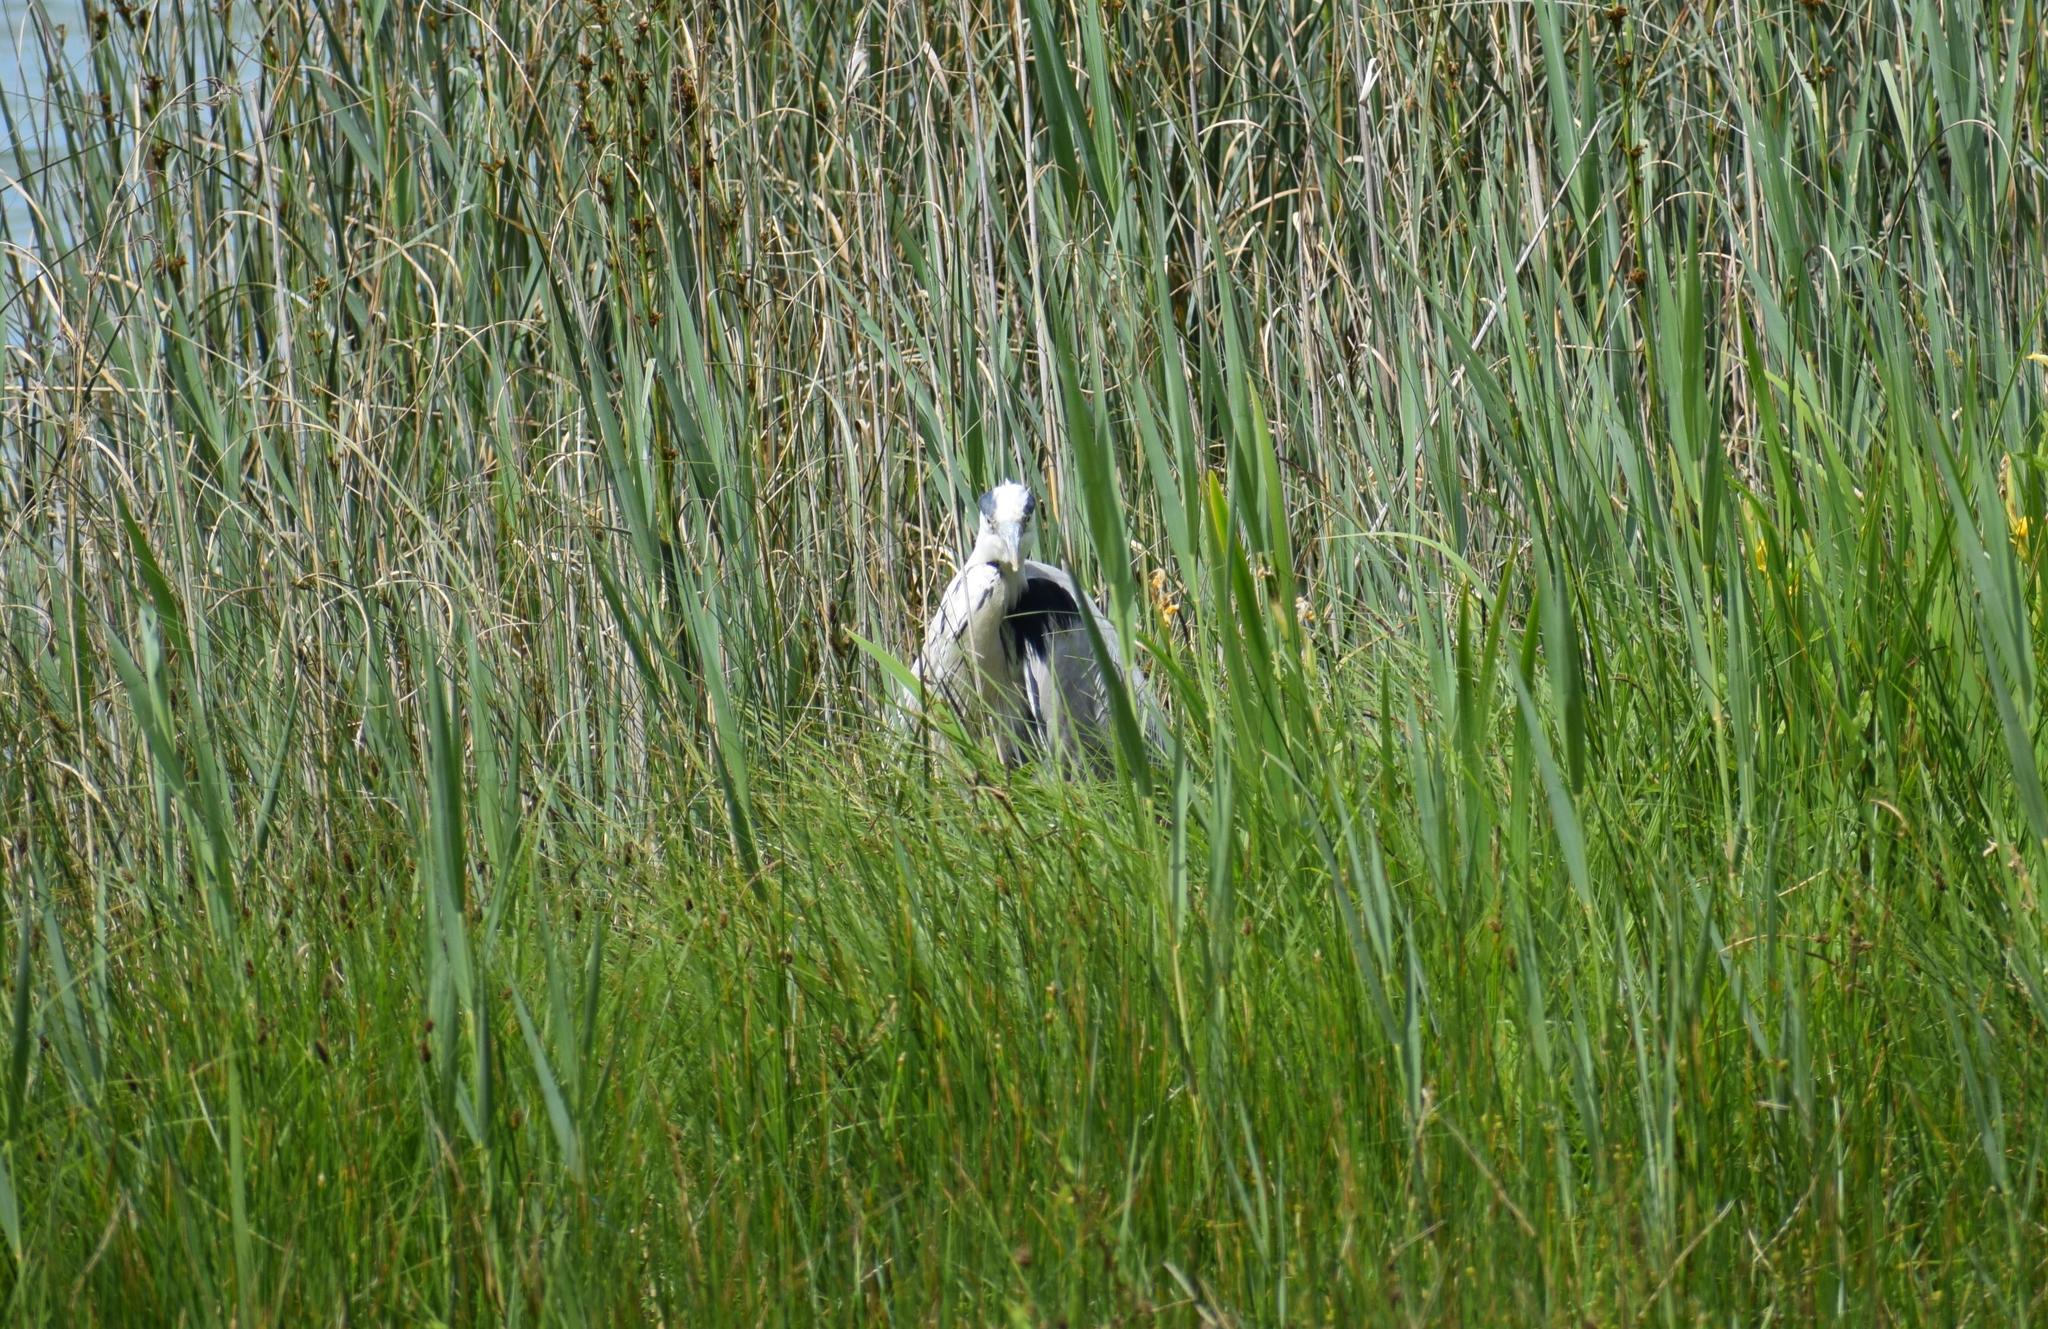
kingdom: Animalia
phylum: Chordata
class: Aves
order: Pelecaniformes
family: Ardeidae
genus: Ardea
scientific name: Ardea cinerea
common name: Grey heron
